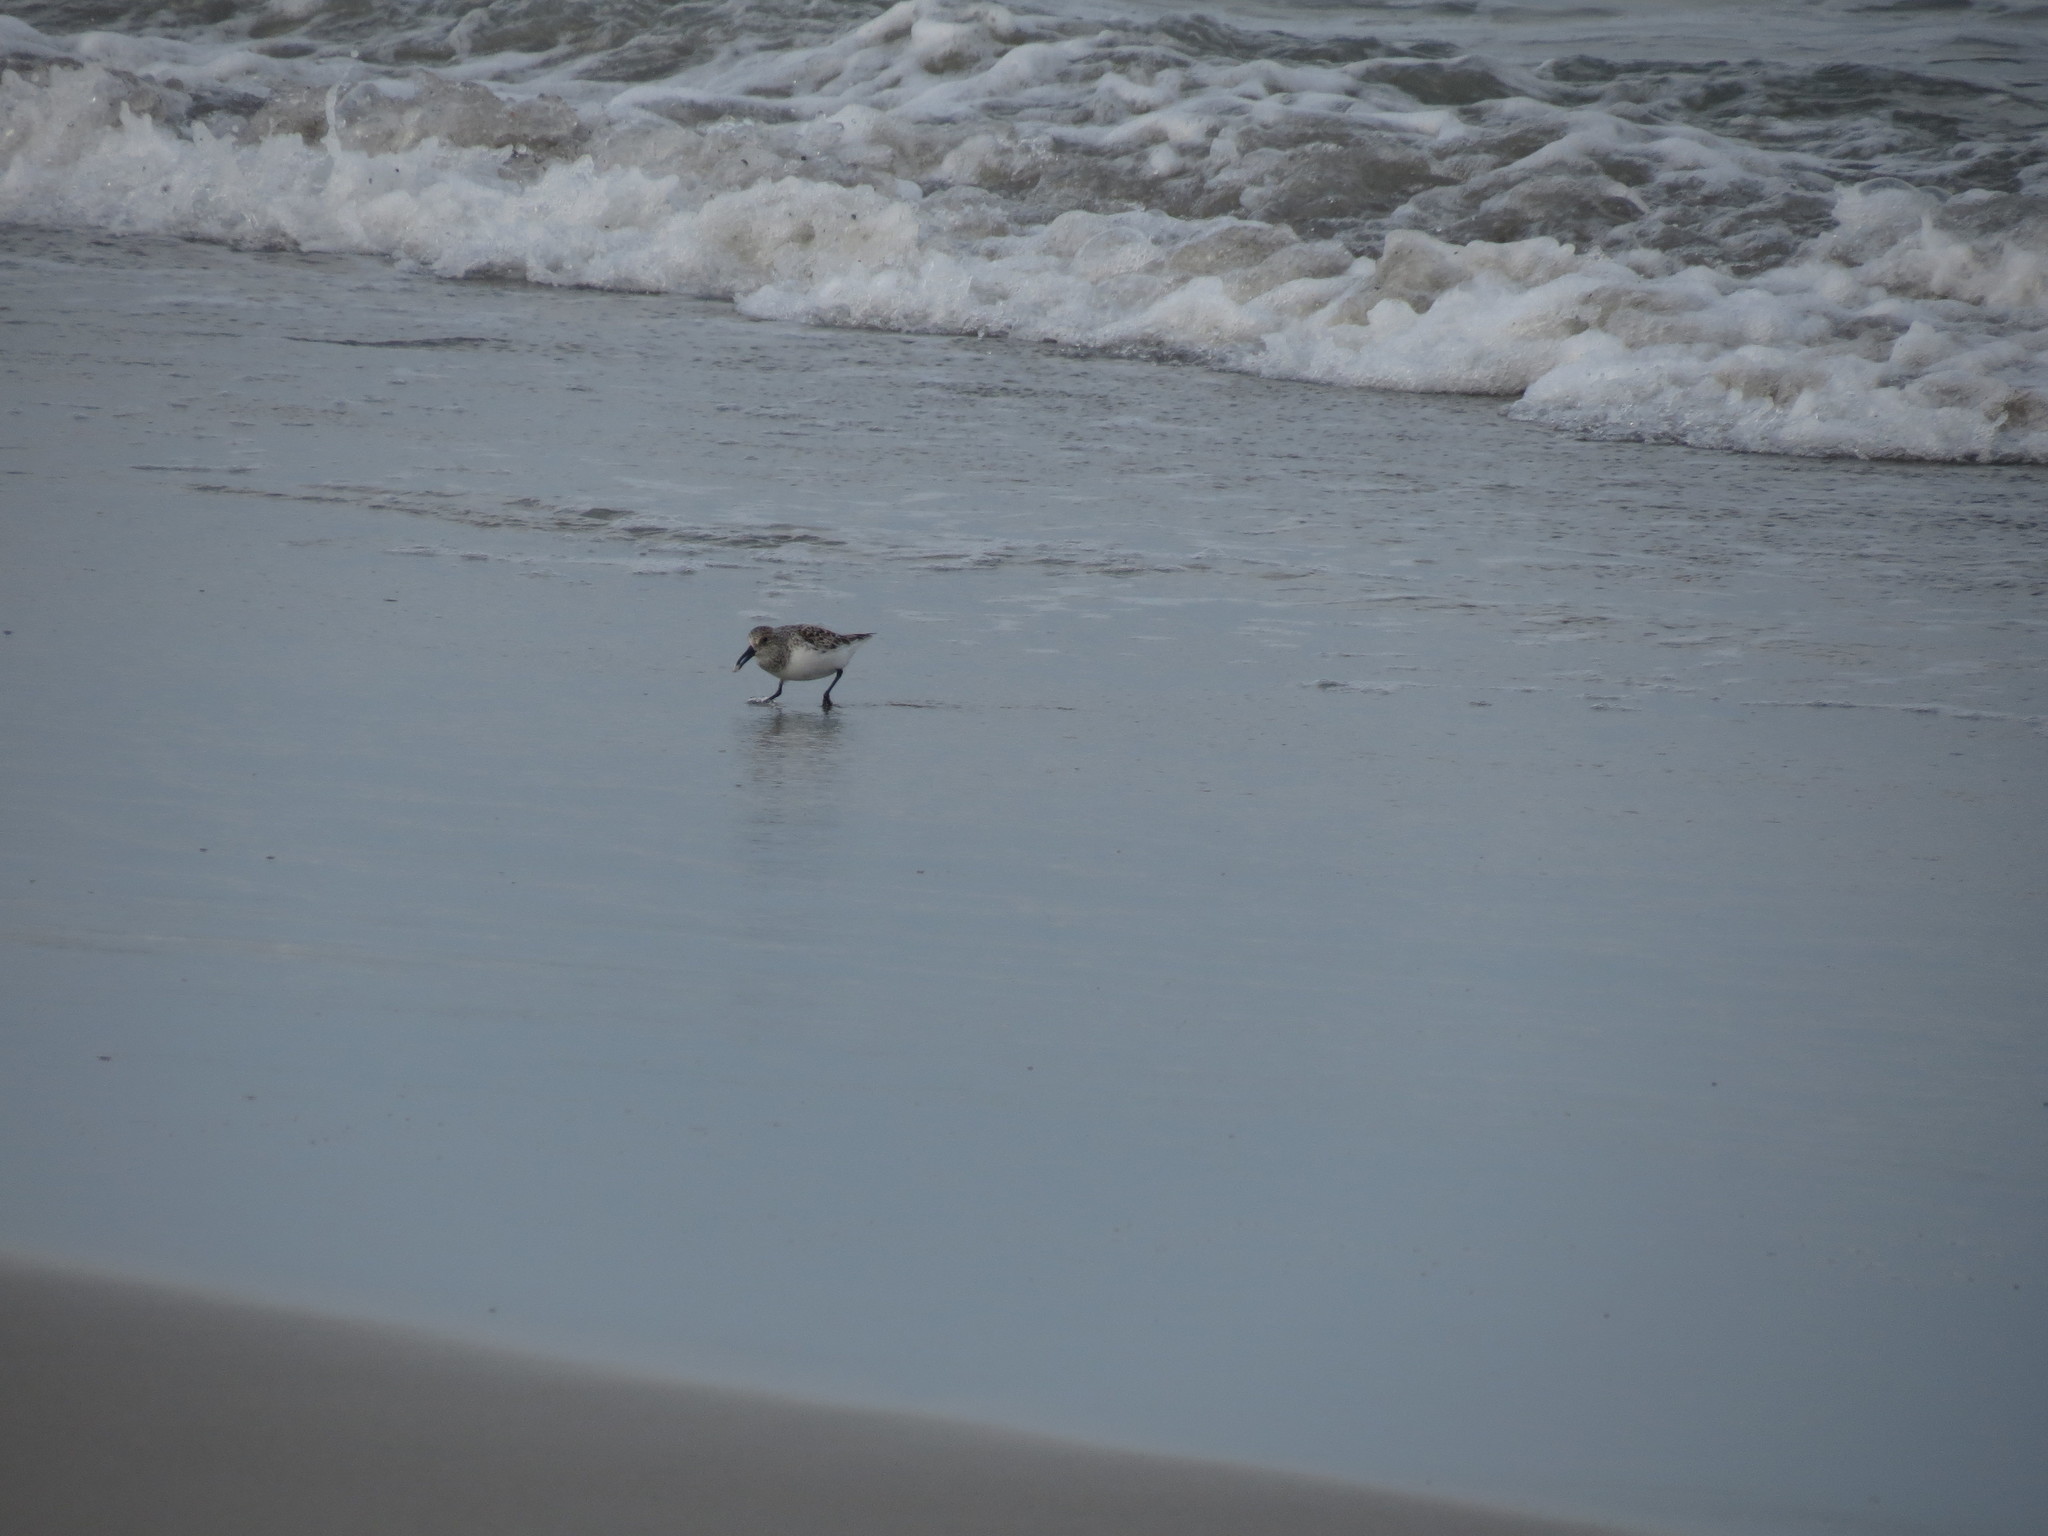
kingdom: Animalia
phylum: Chordata
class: Aves
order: Charadriiformes
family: Scolopacidae
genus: Calidris
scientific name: Calidris alba
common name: Sanderling
